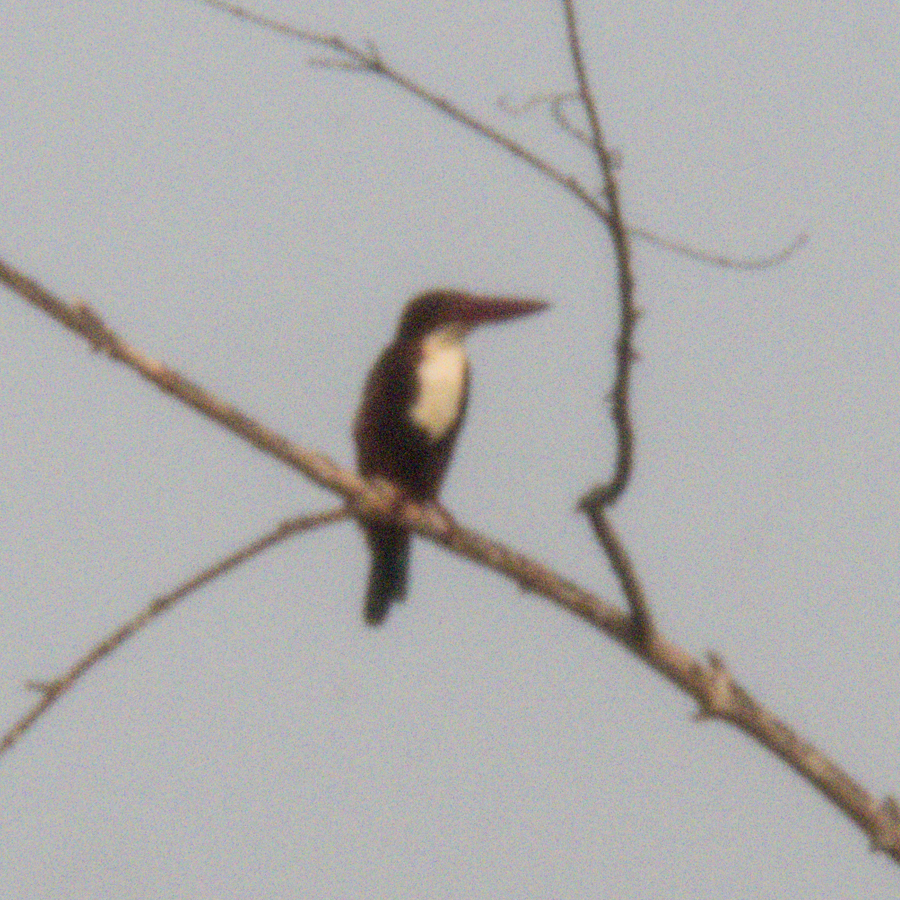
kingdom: Animalia
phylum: Chordata
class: Aves
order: Coraciiformes
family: Alcedinidae
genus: Halcyon
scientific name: Halcyon smyrnensis
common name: White-throated kingfisher
